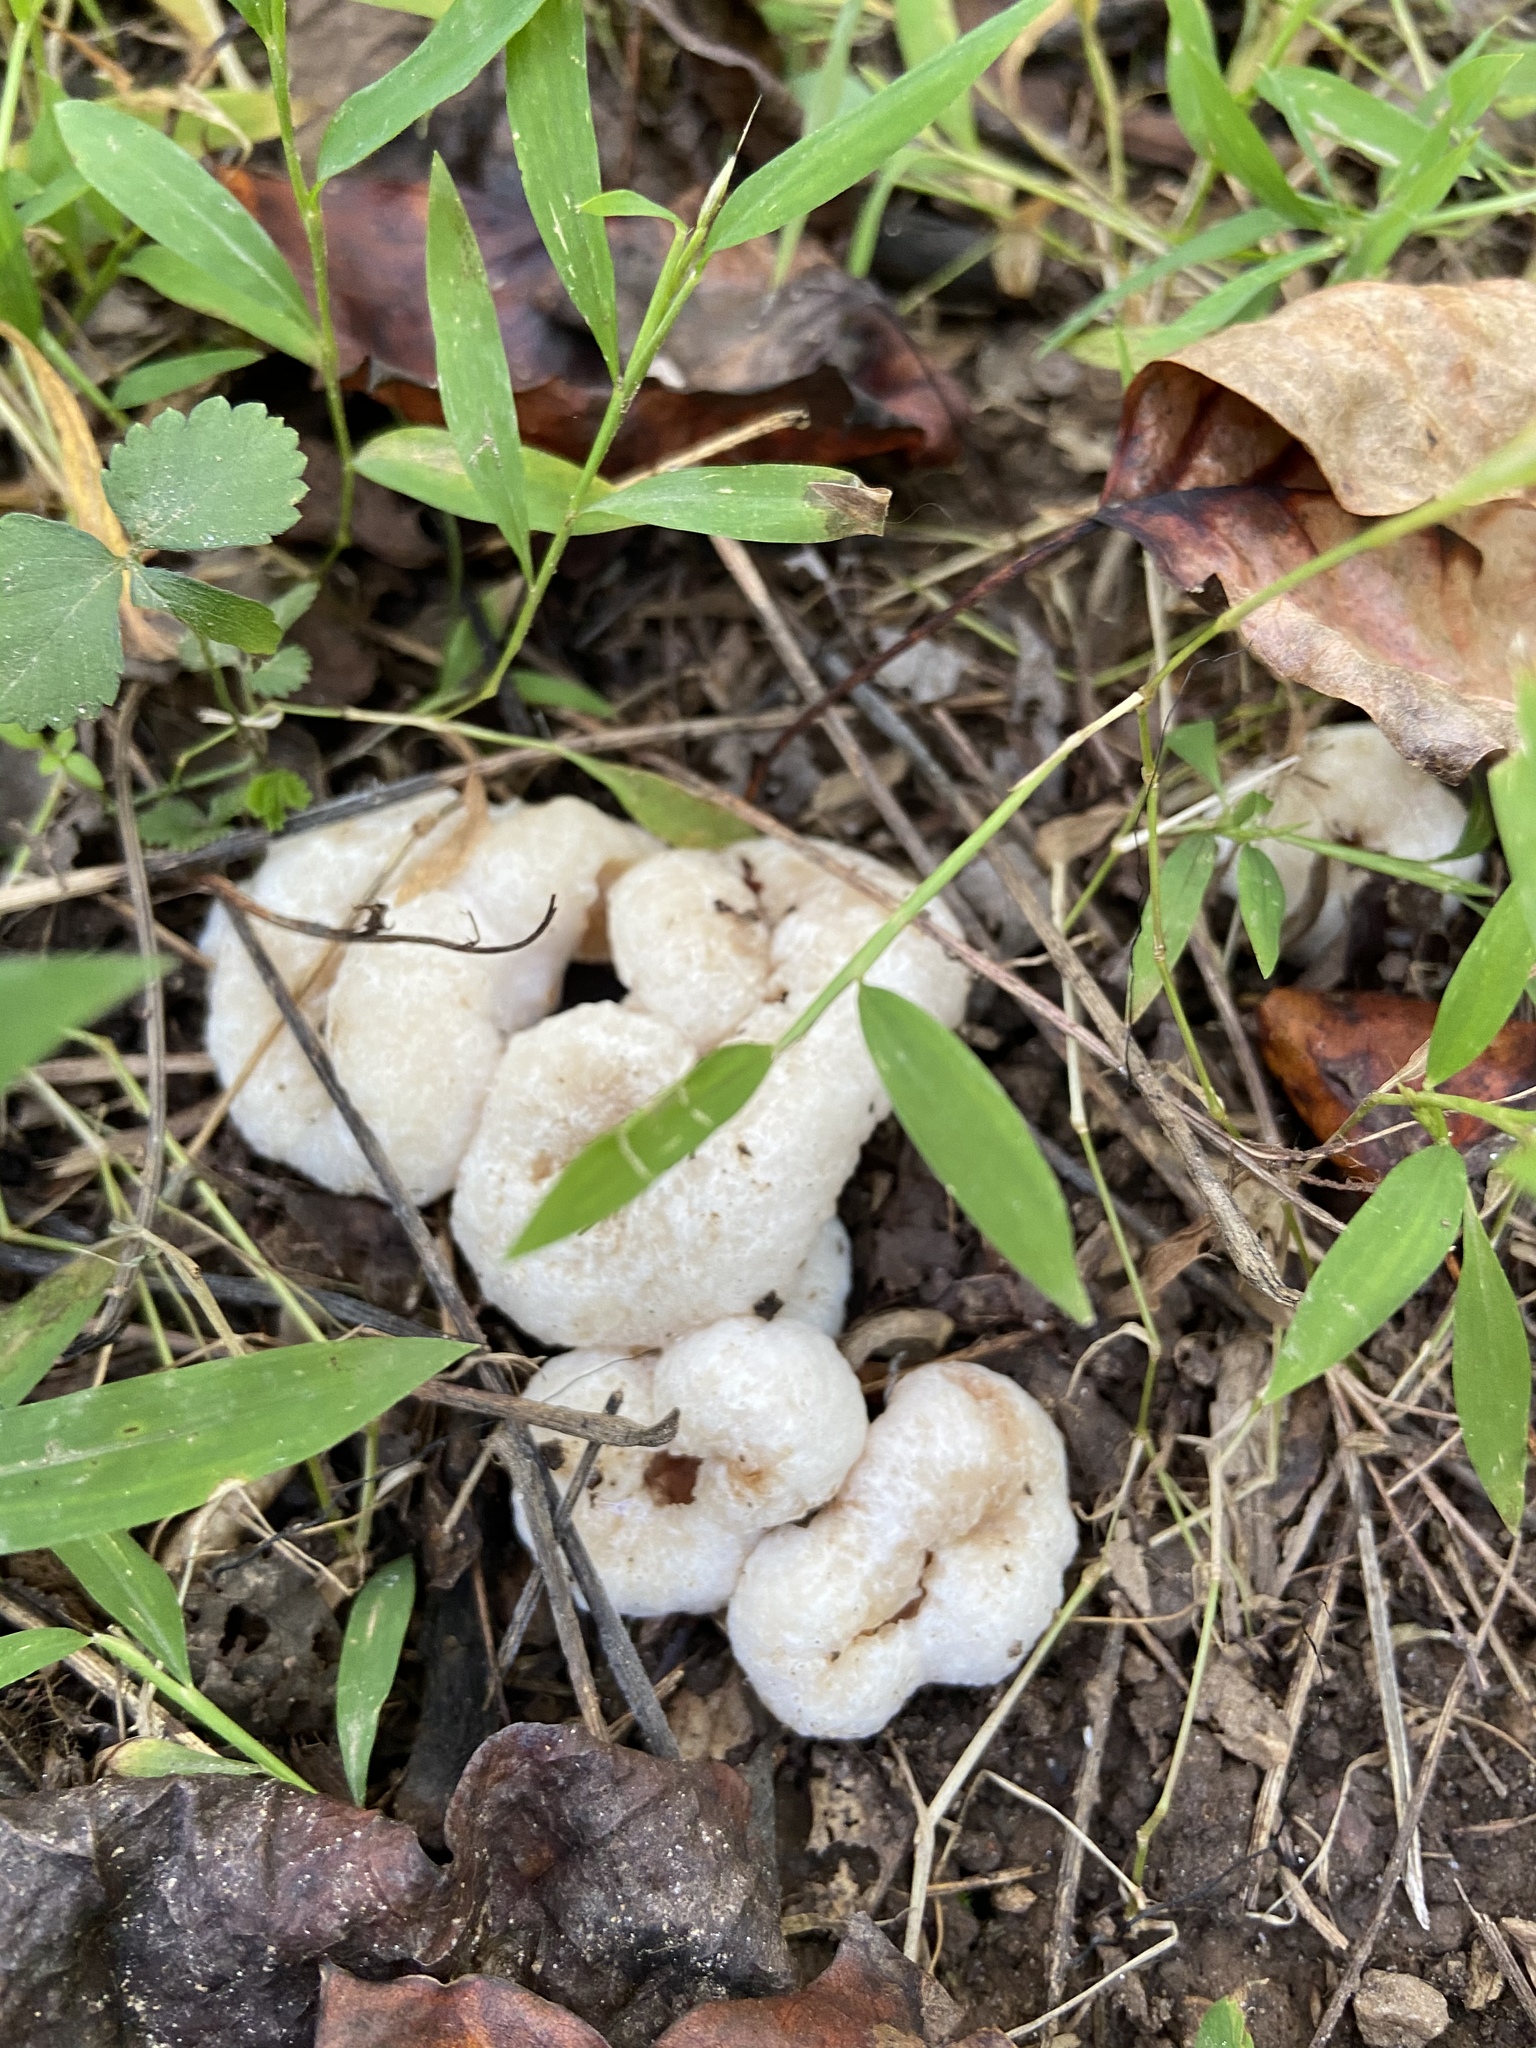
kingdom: Fungi
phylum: Basidiomycota
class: Agaricomycetes
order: Agaricales
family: Entolomataceae
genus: Entoloma
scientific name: Entoloma abortivum
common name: Aborted entoloma
